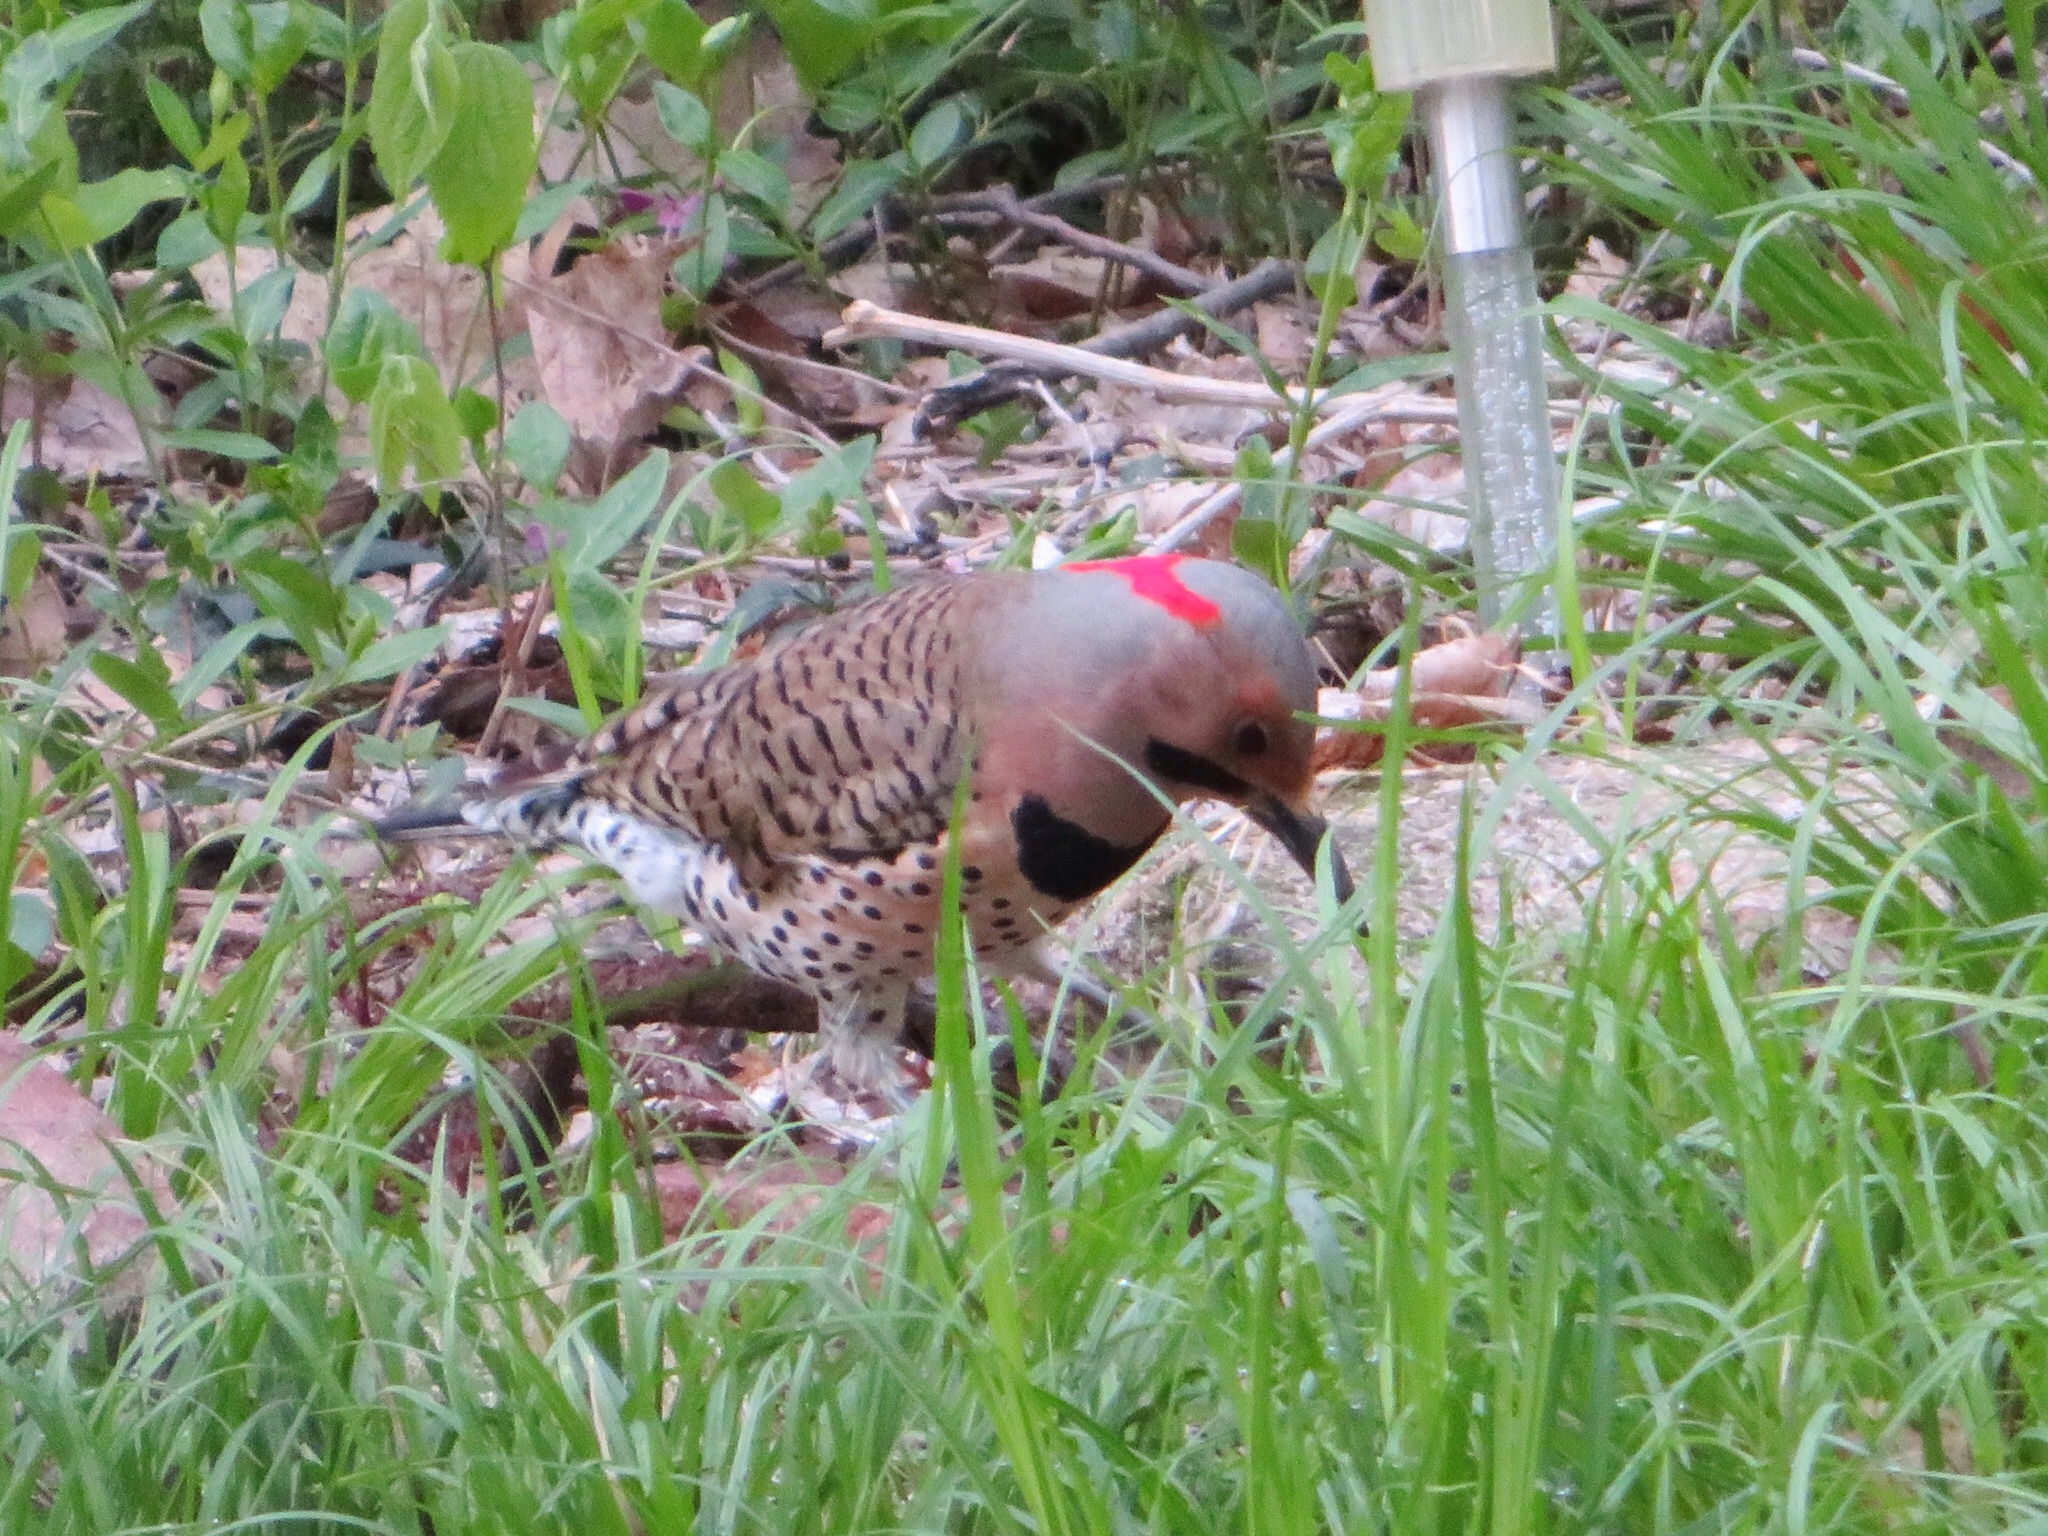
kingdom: Animalia
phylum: Chordata
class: Aves
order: Piciformes
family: Picidae
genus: Colaptes
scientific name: Colaptes auratus
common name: Northern flicker
